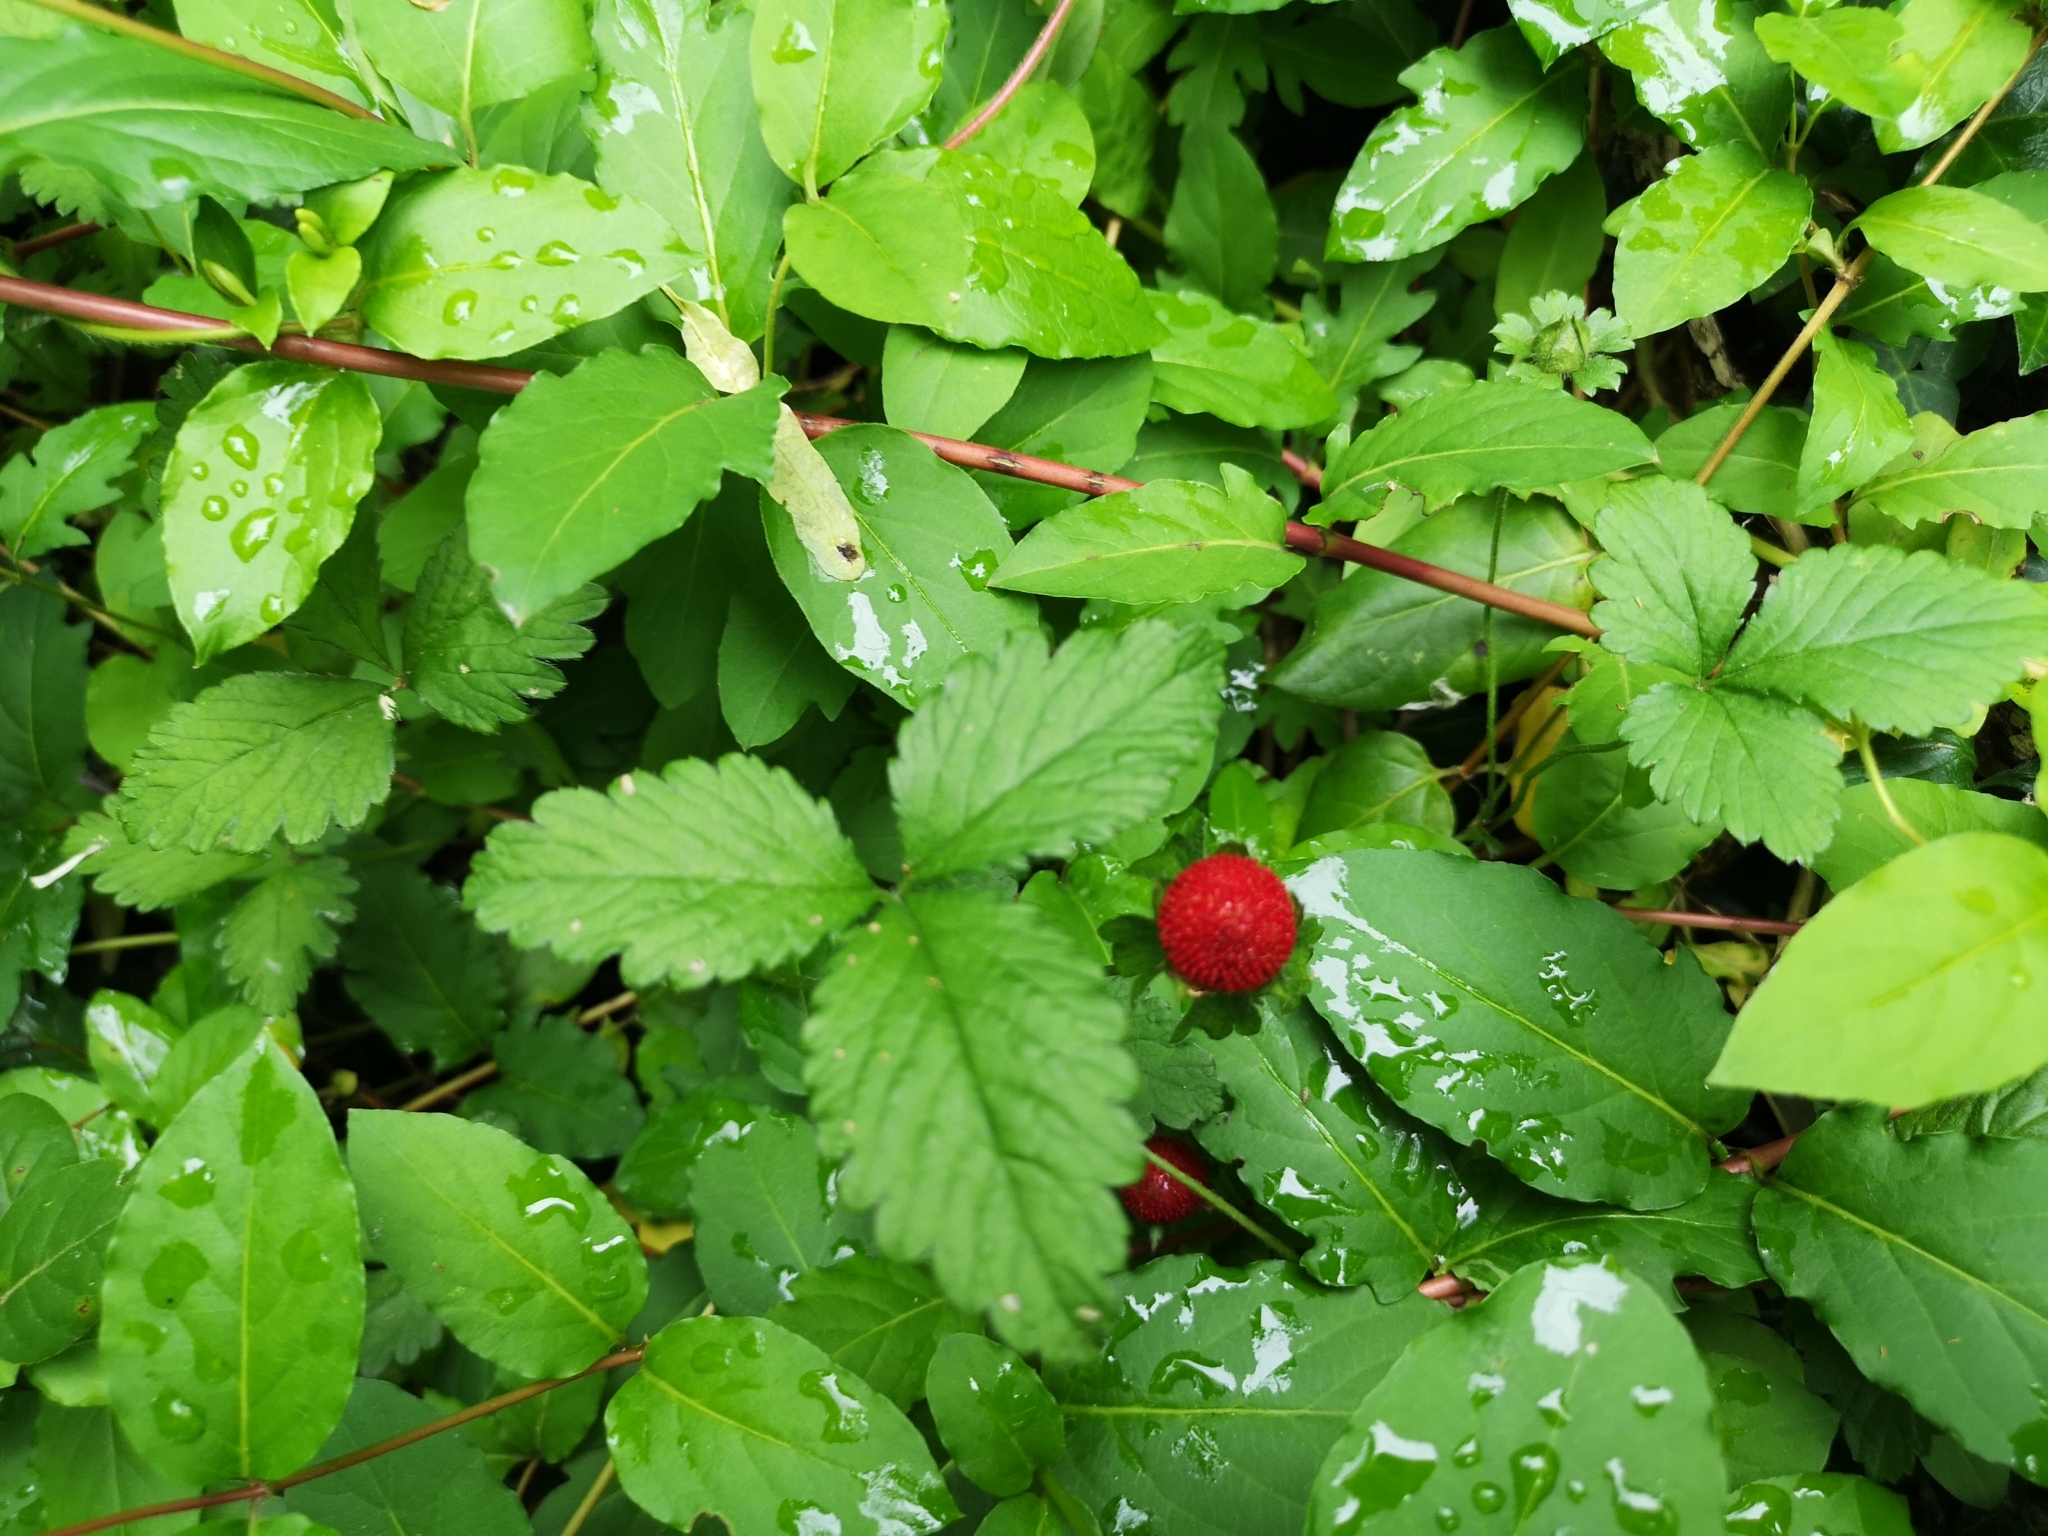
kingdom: Plantae
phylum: Tracheophyta
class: Magnoliopsida
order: Rosales
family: Rosaceae
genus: Potentilla
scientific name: Potentilla indica
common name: Yellow-flowered strawberry
